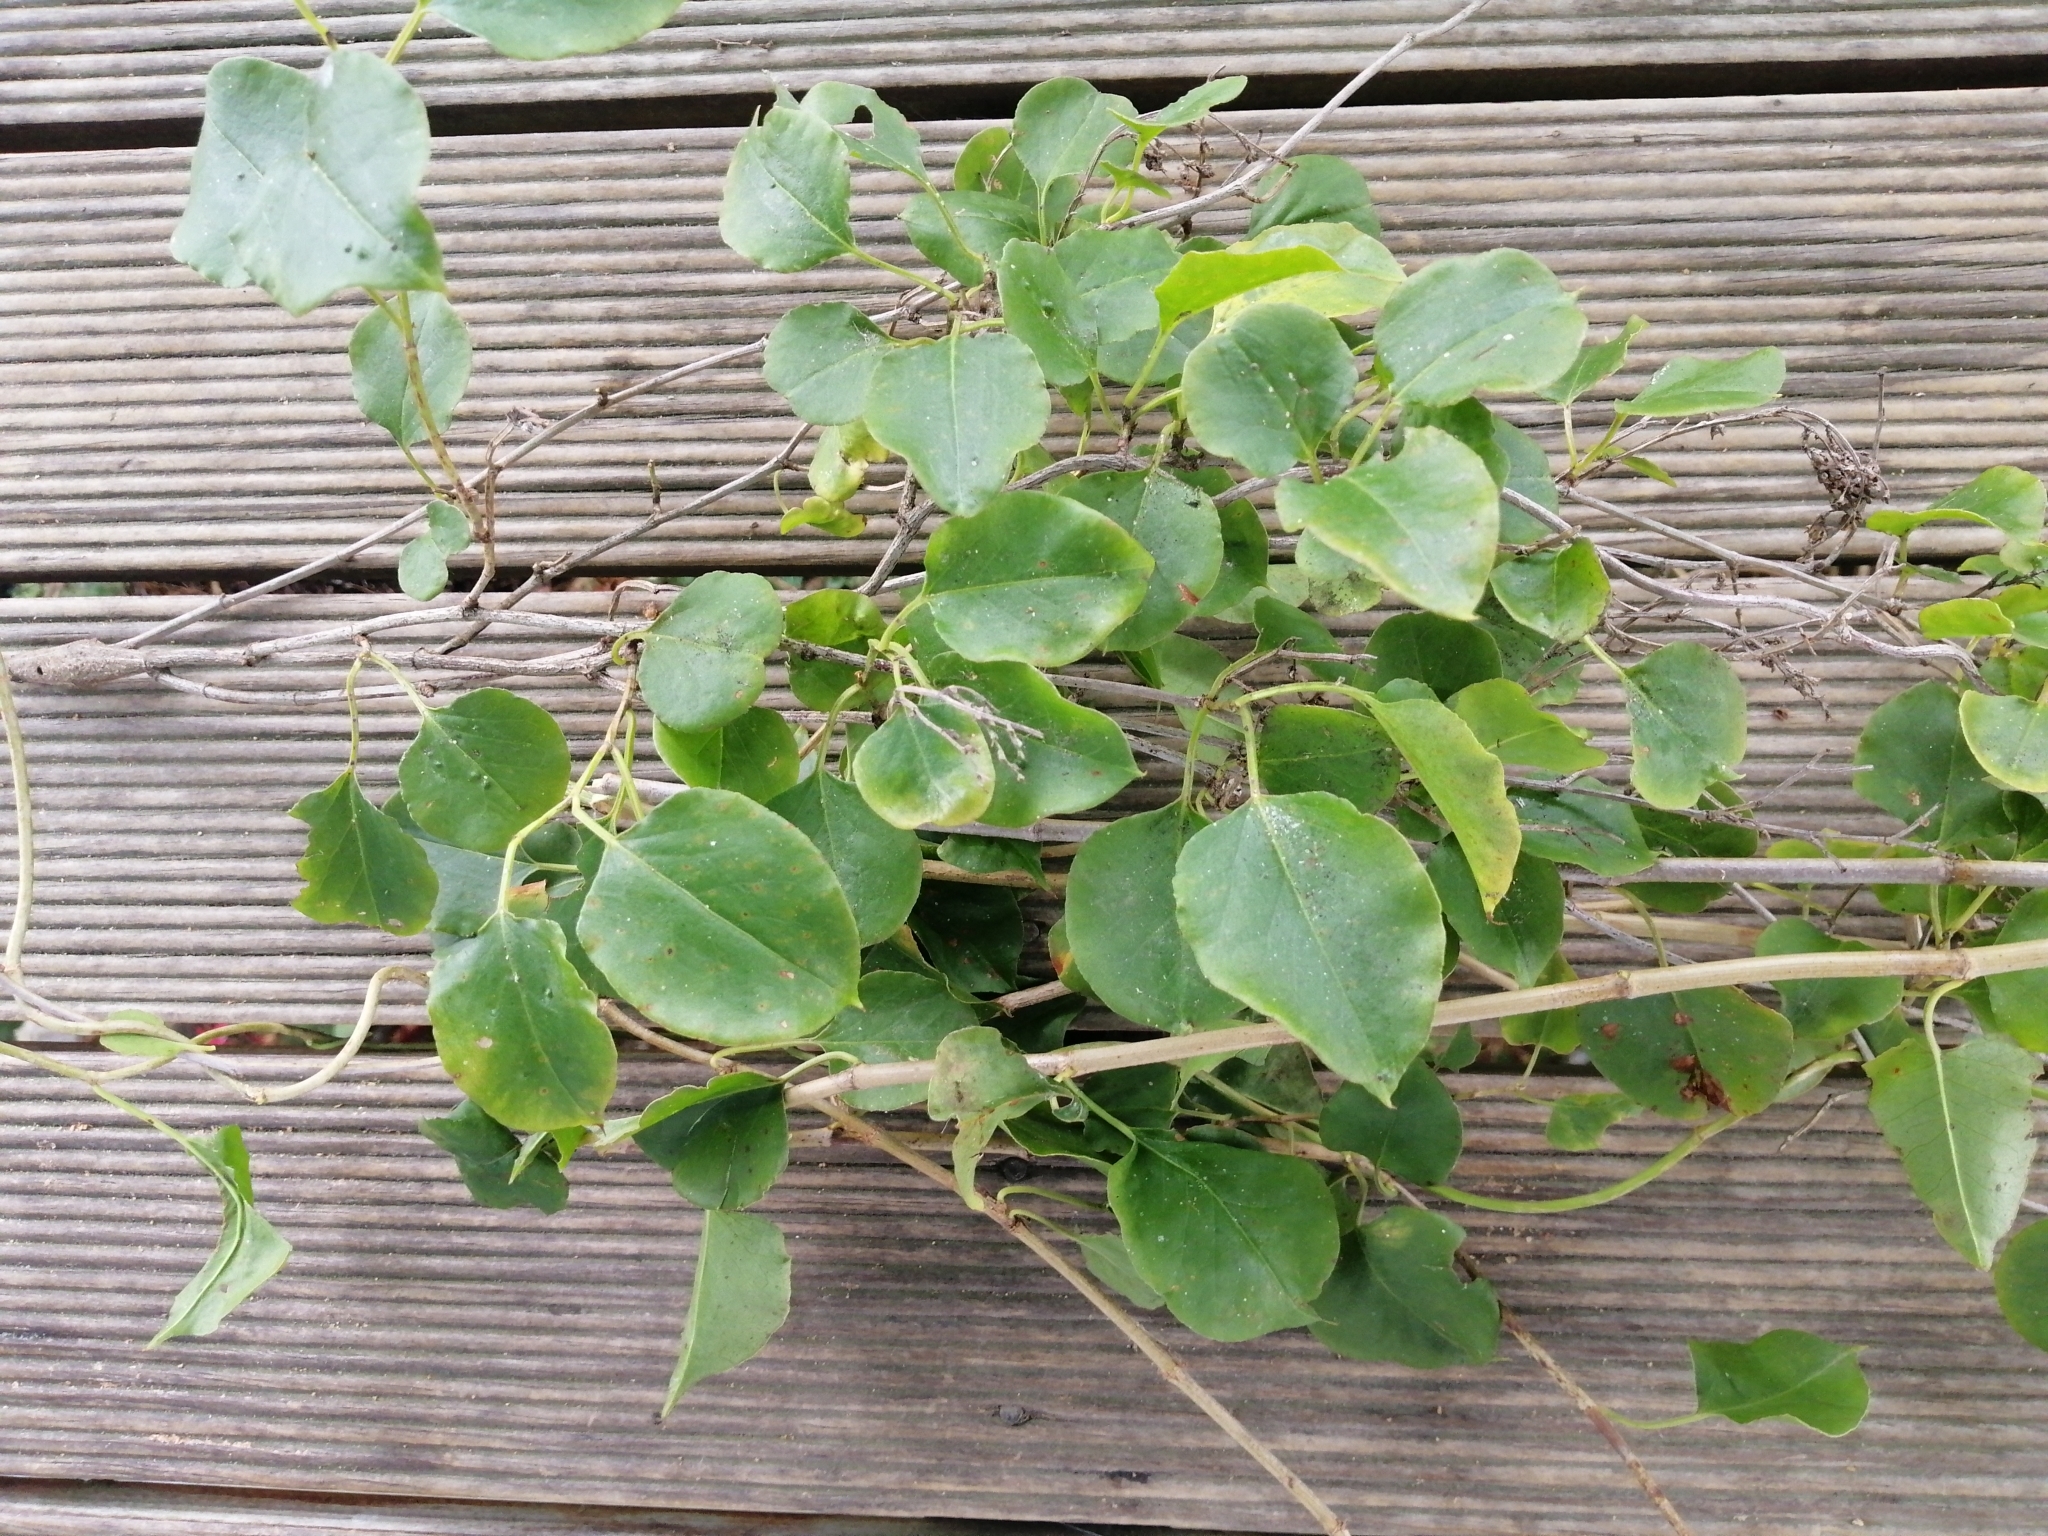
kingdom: Plantae
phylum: Tracheophyta
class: Magnoliopsida
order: Caryophyllales
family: Polygonaceae
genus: Muehlenbeckia
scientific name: Muehlenbeckia australis
